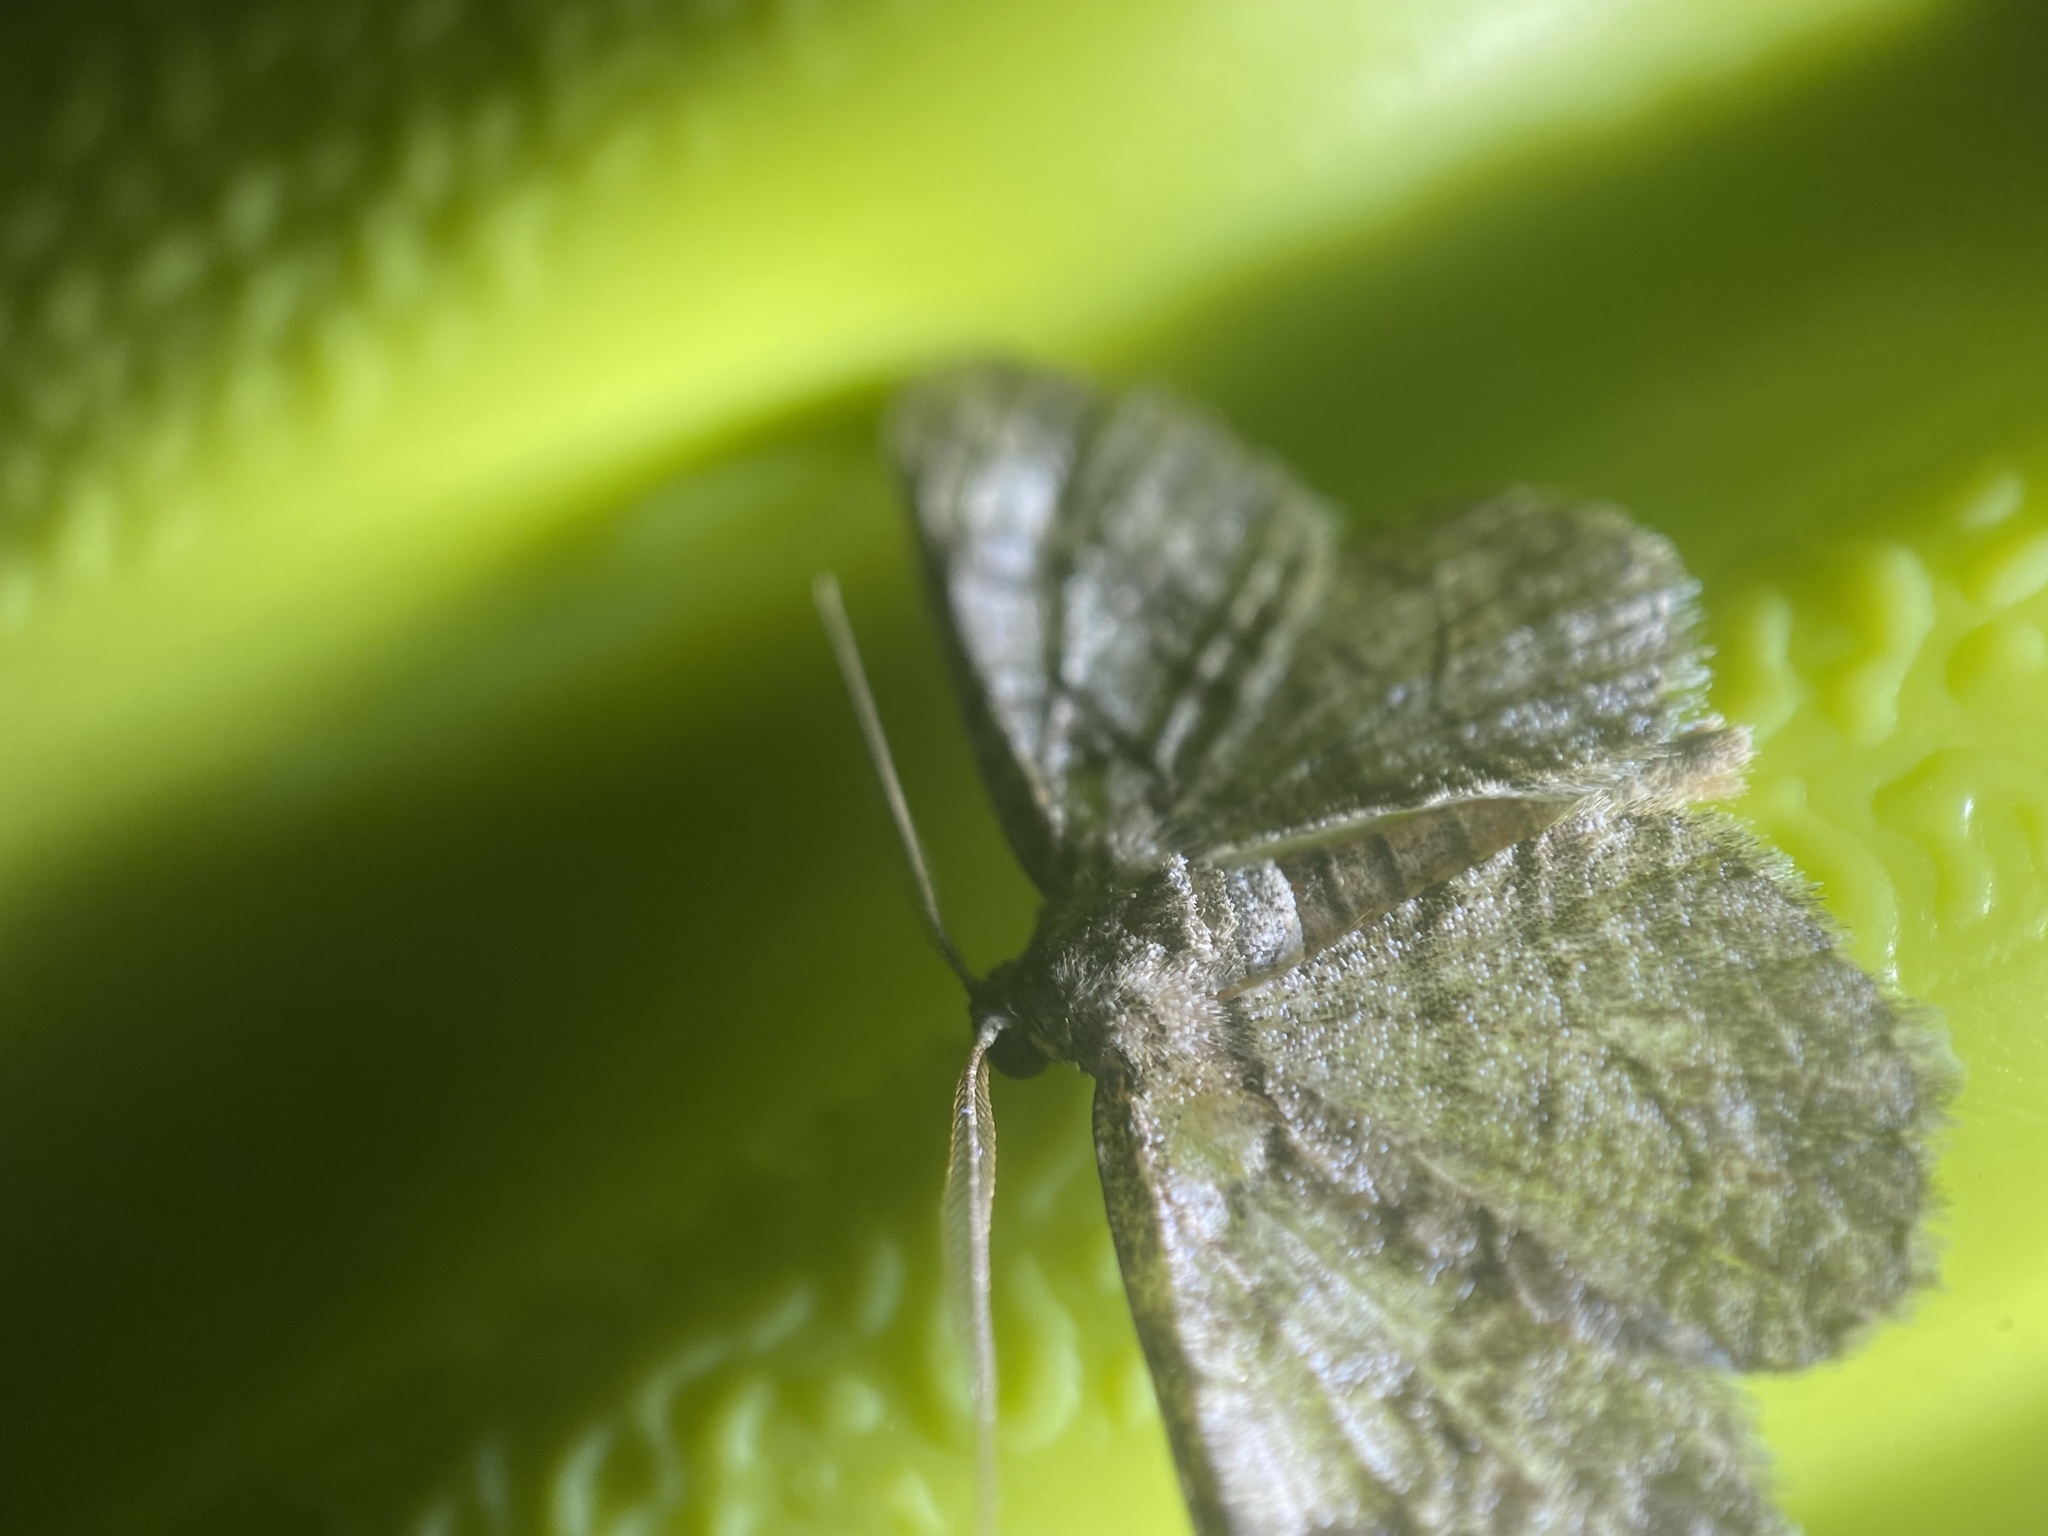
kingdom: Animalia
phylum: Arthropoda
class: Insecta
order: Lepidoptera
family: Geometridae
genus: Anavitrinella
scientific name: Anavitrinella pampinaria
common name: Common gray
